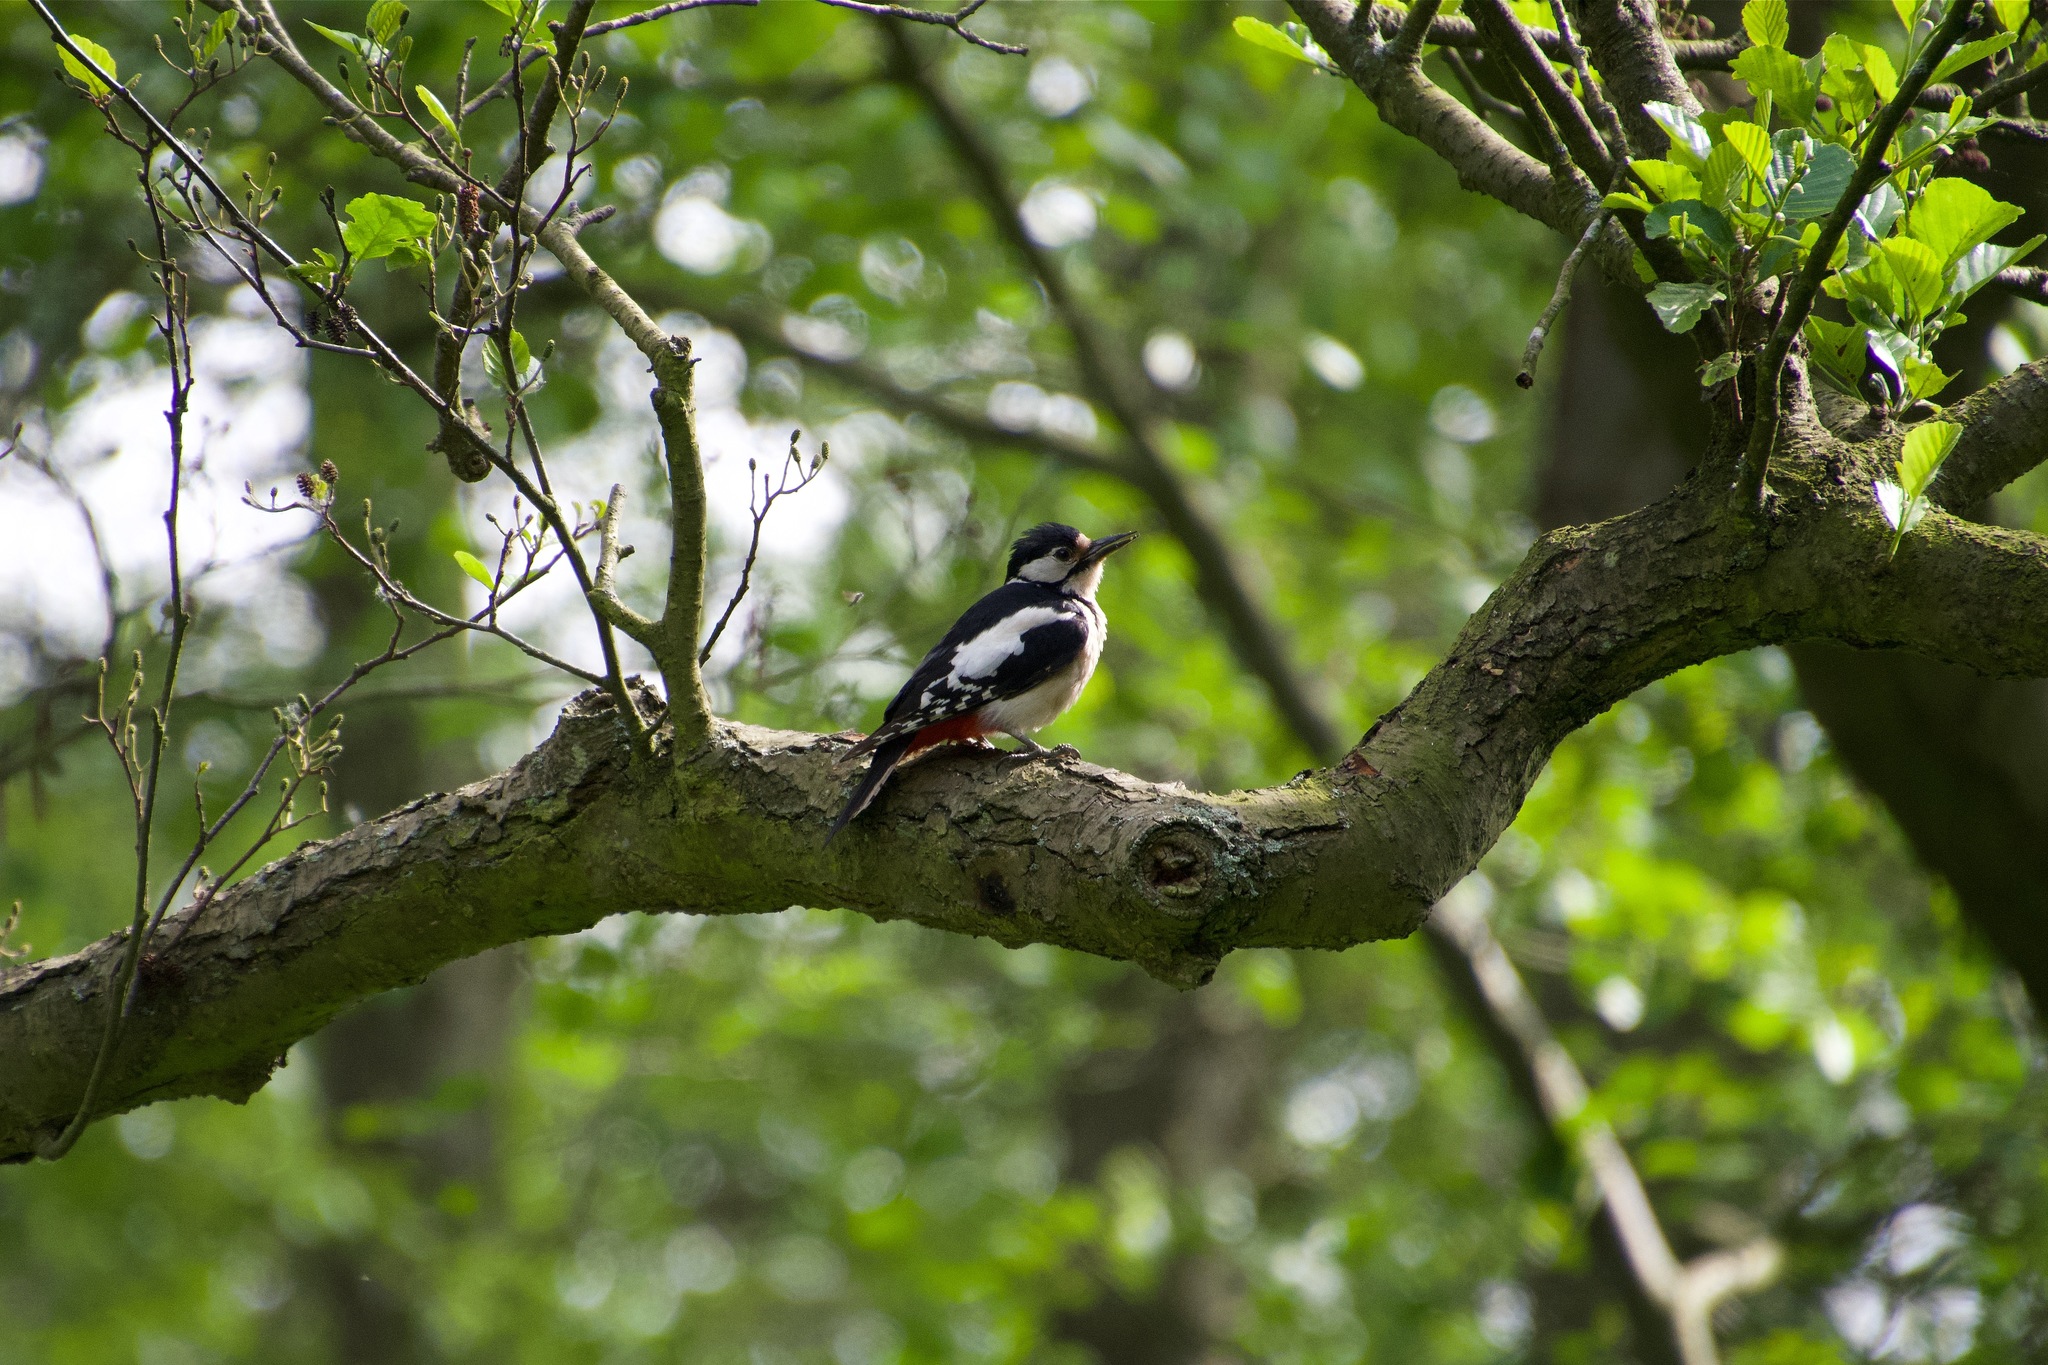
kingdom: Animalia
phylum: Chordata
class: Aves
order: Piciformes
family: Picidae
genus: Dendrocopos
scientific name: Dendrocopos major
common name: Great spotted woodpecker
